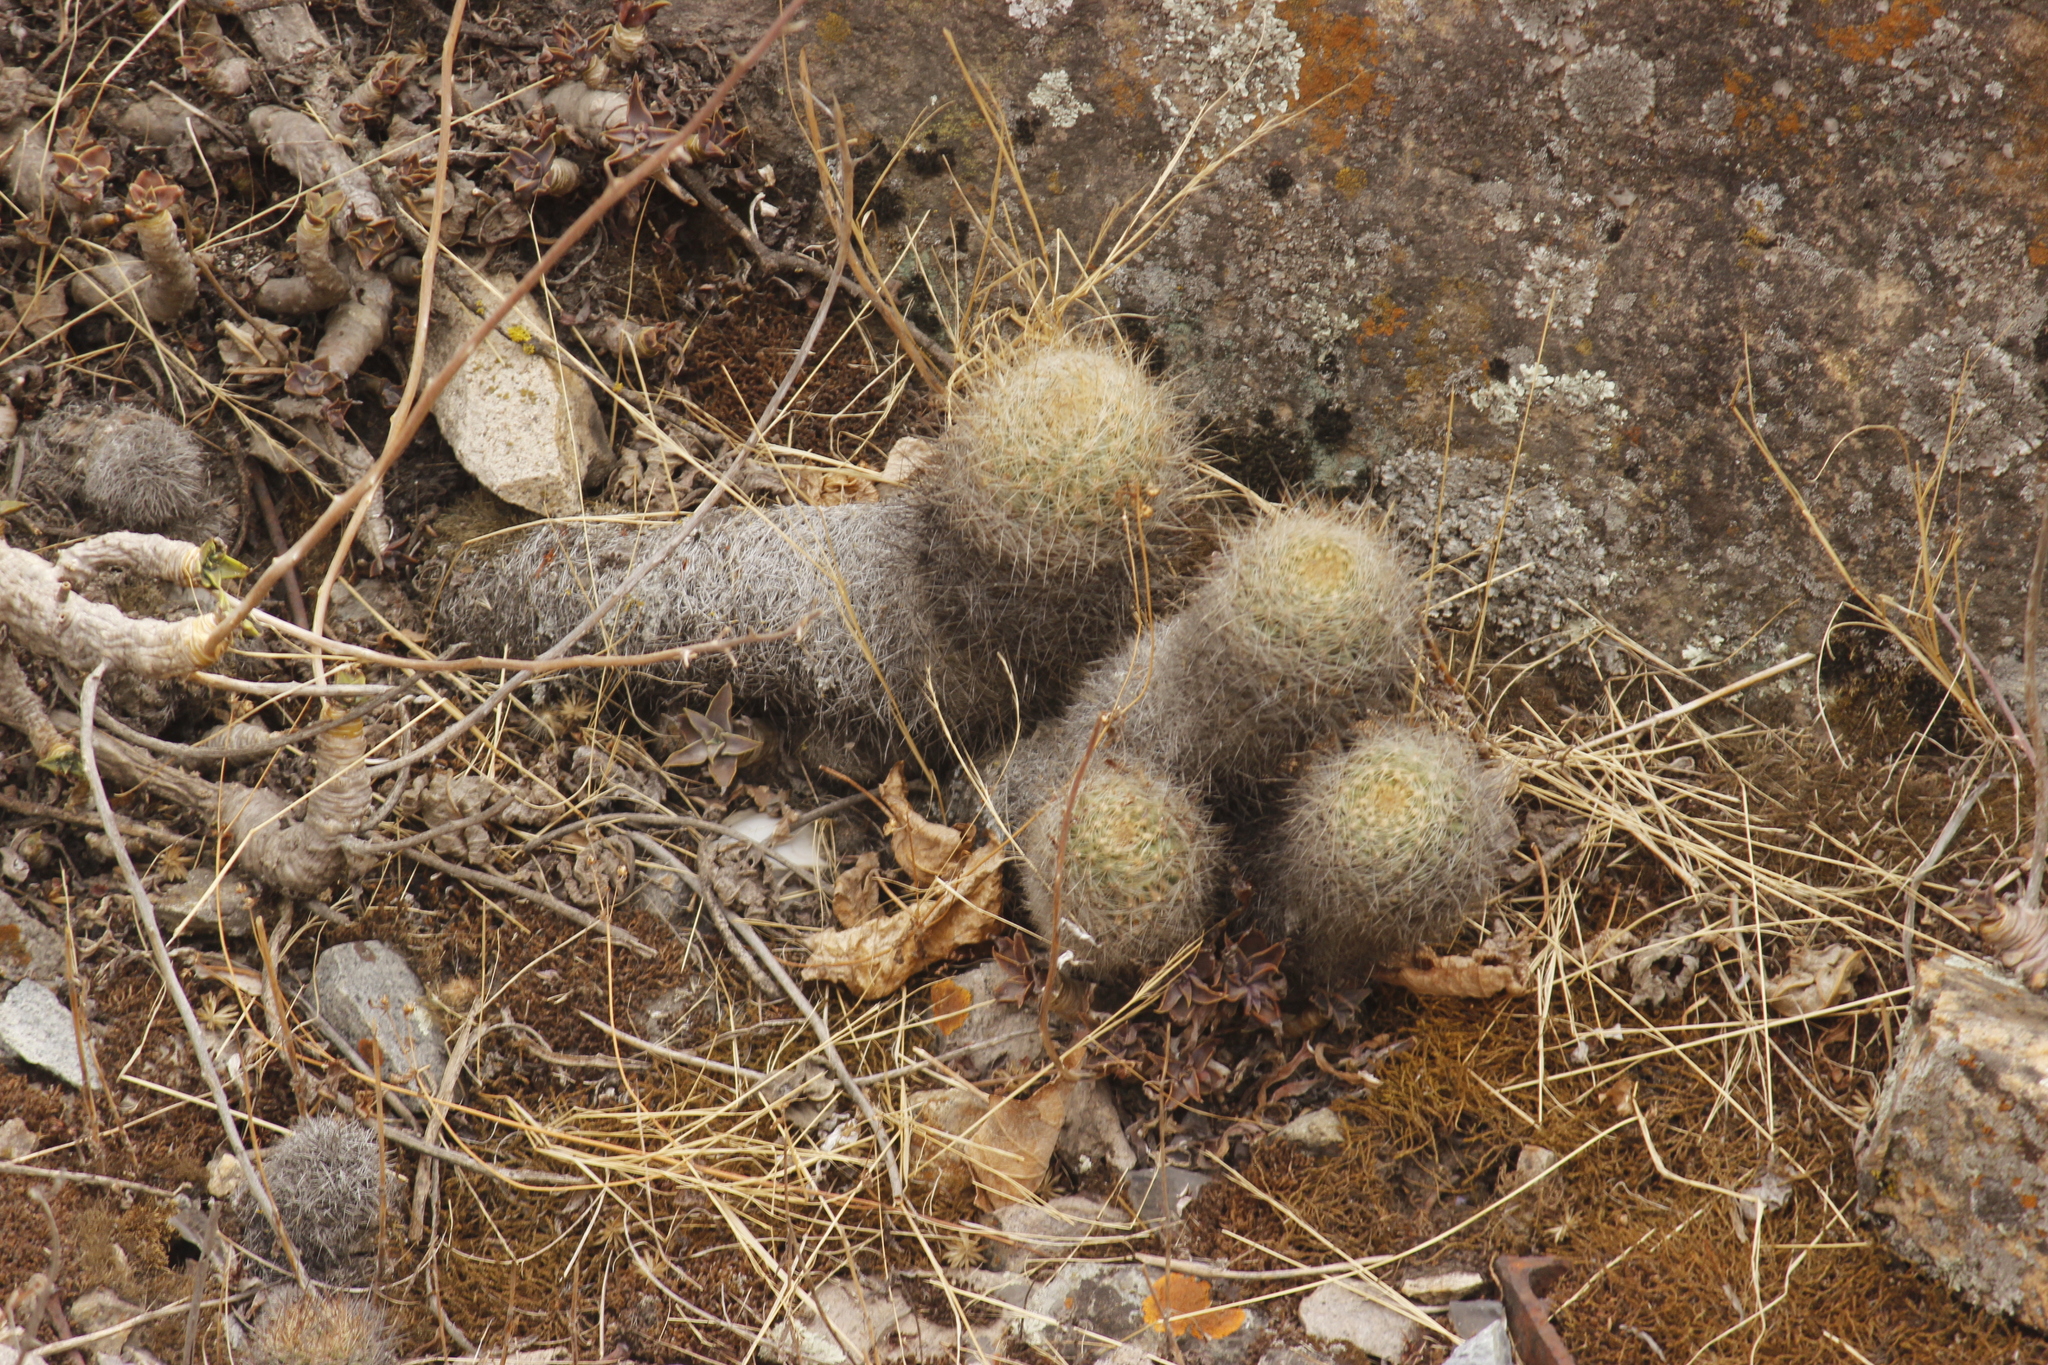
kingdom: Plantae
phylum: Tracheophyta
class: Magnoliopsida
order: Caryophyllales
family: Cactaceae
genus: Matucana
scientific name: Matucana haynii
